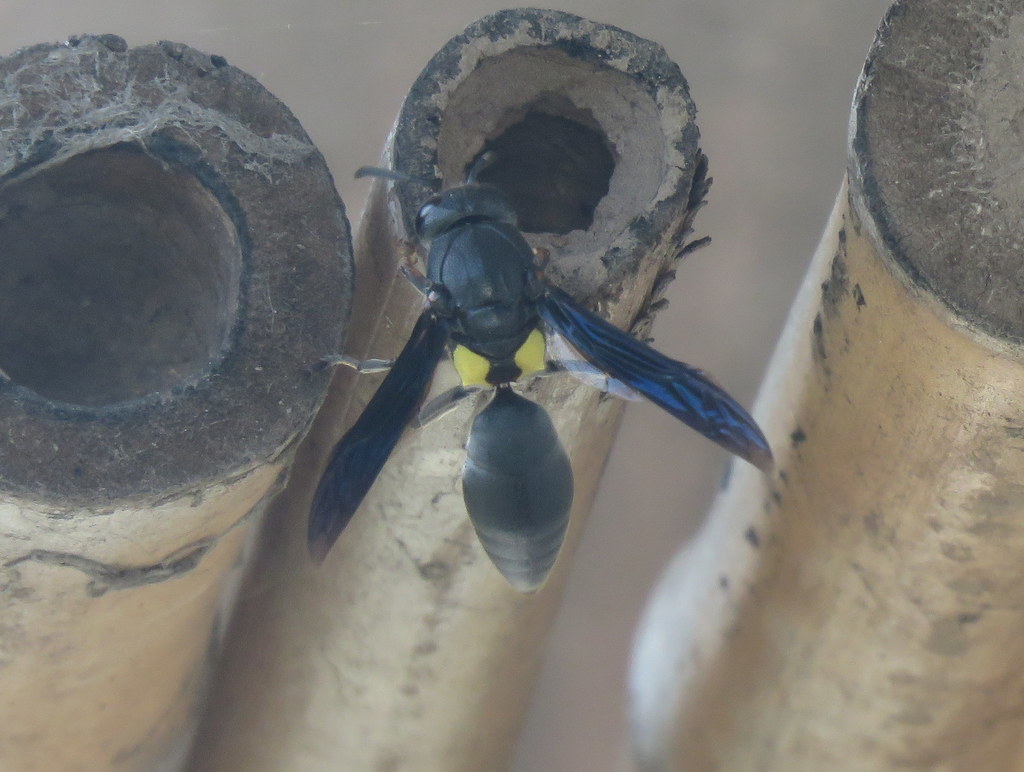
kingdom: Animalia
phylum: Arthropoda
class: Insecta
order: Hymenoptera
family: Eumenidae
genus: Monobia
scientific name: Monobia angulosa
